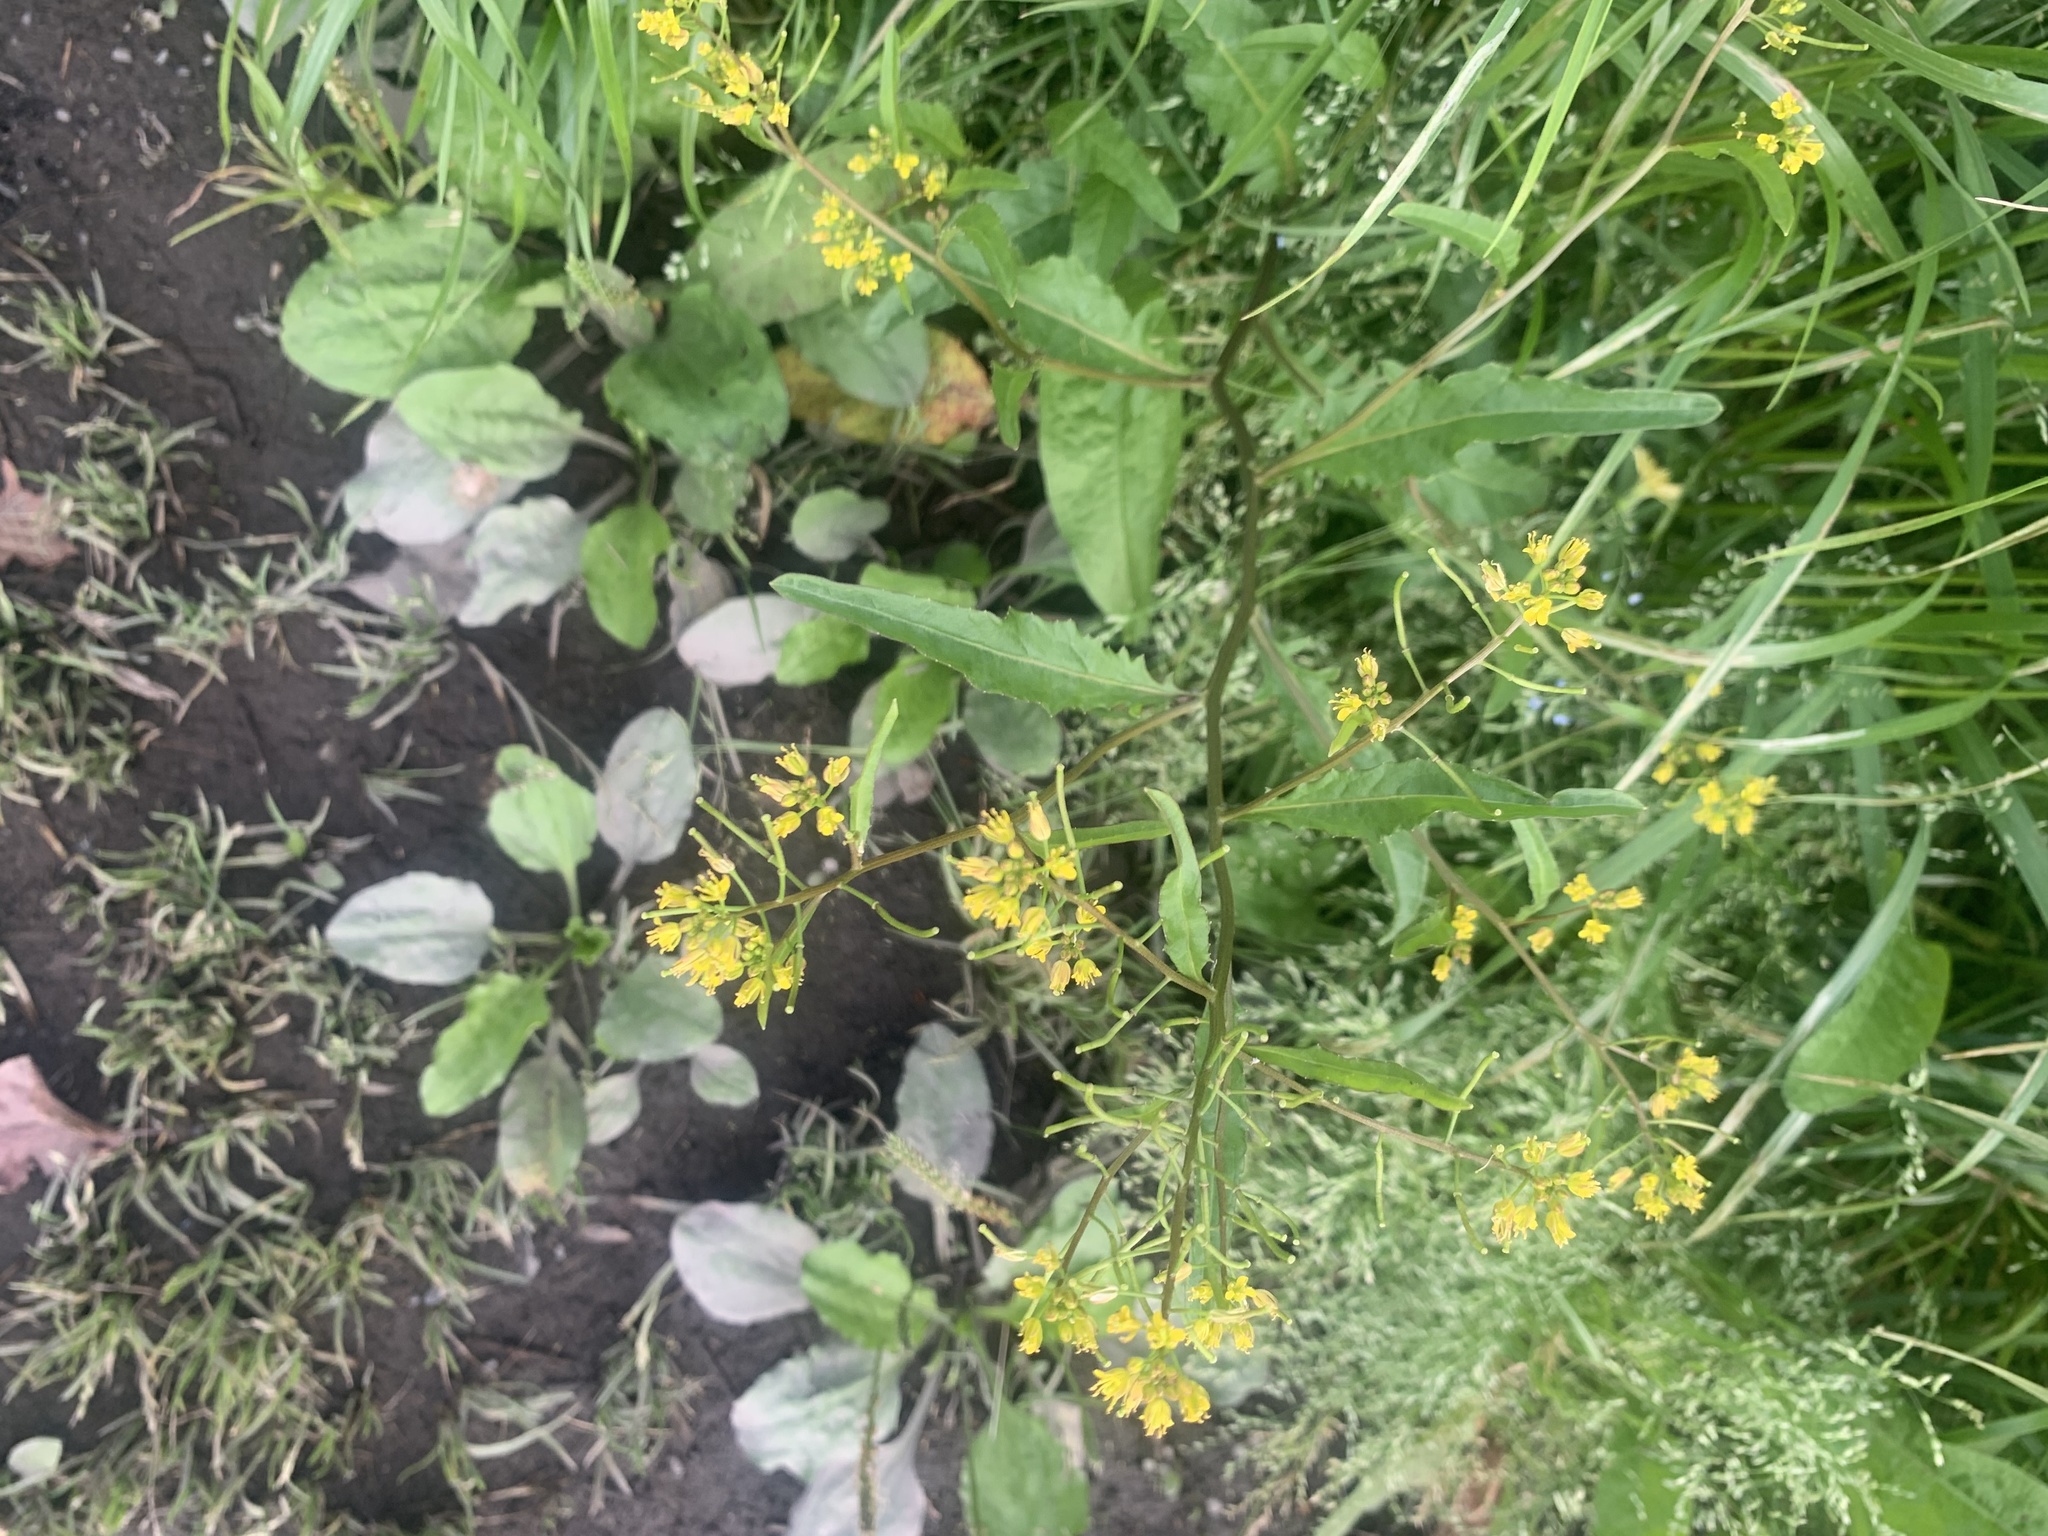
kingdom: Plantae
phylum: Tracheophyta
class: Magnoliopsida
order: Brassicales
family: Brassicaceae
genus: Rorippa
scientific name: Rorippa indica
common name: Variableleaf yellowcress
